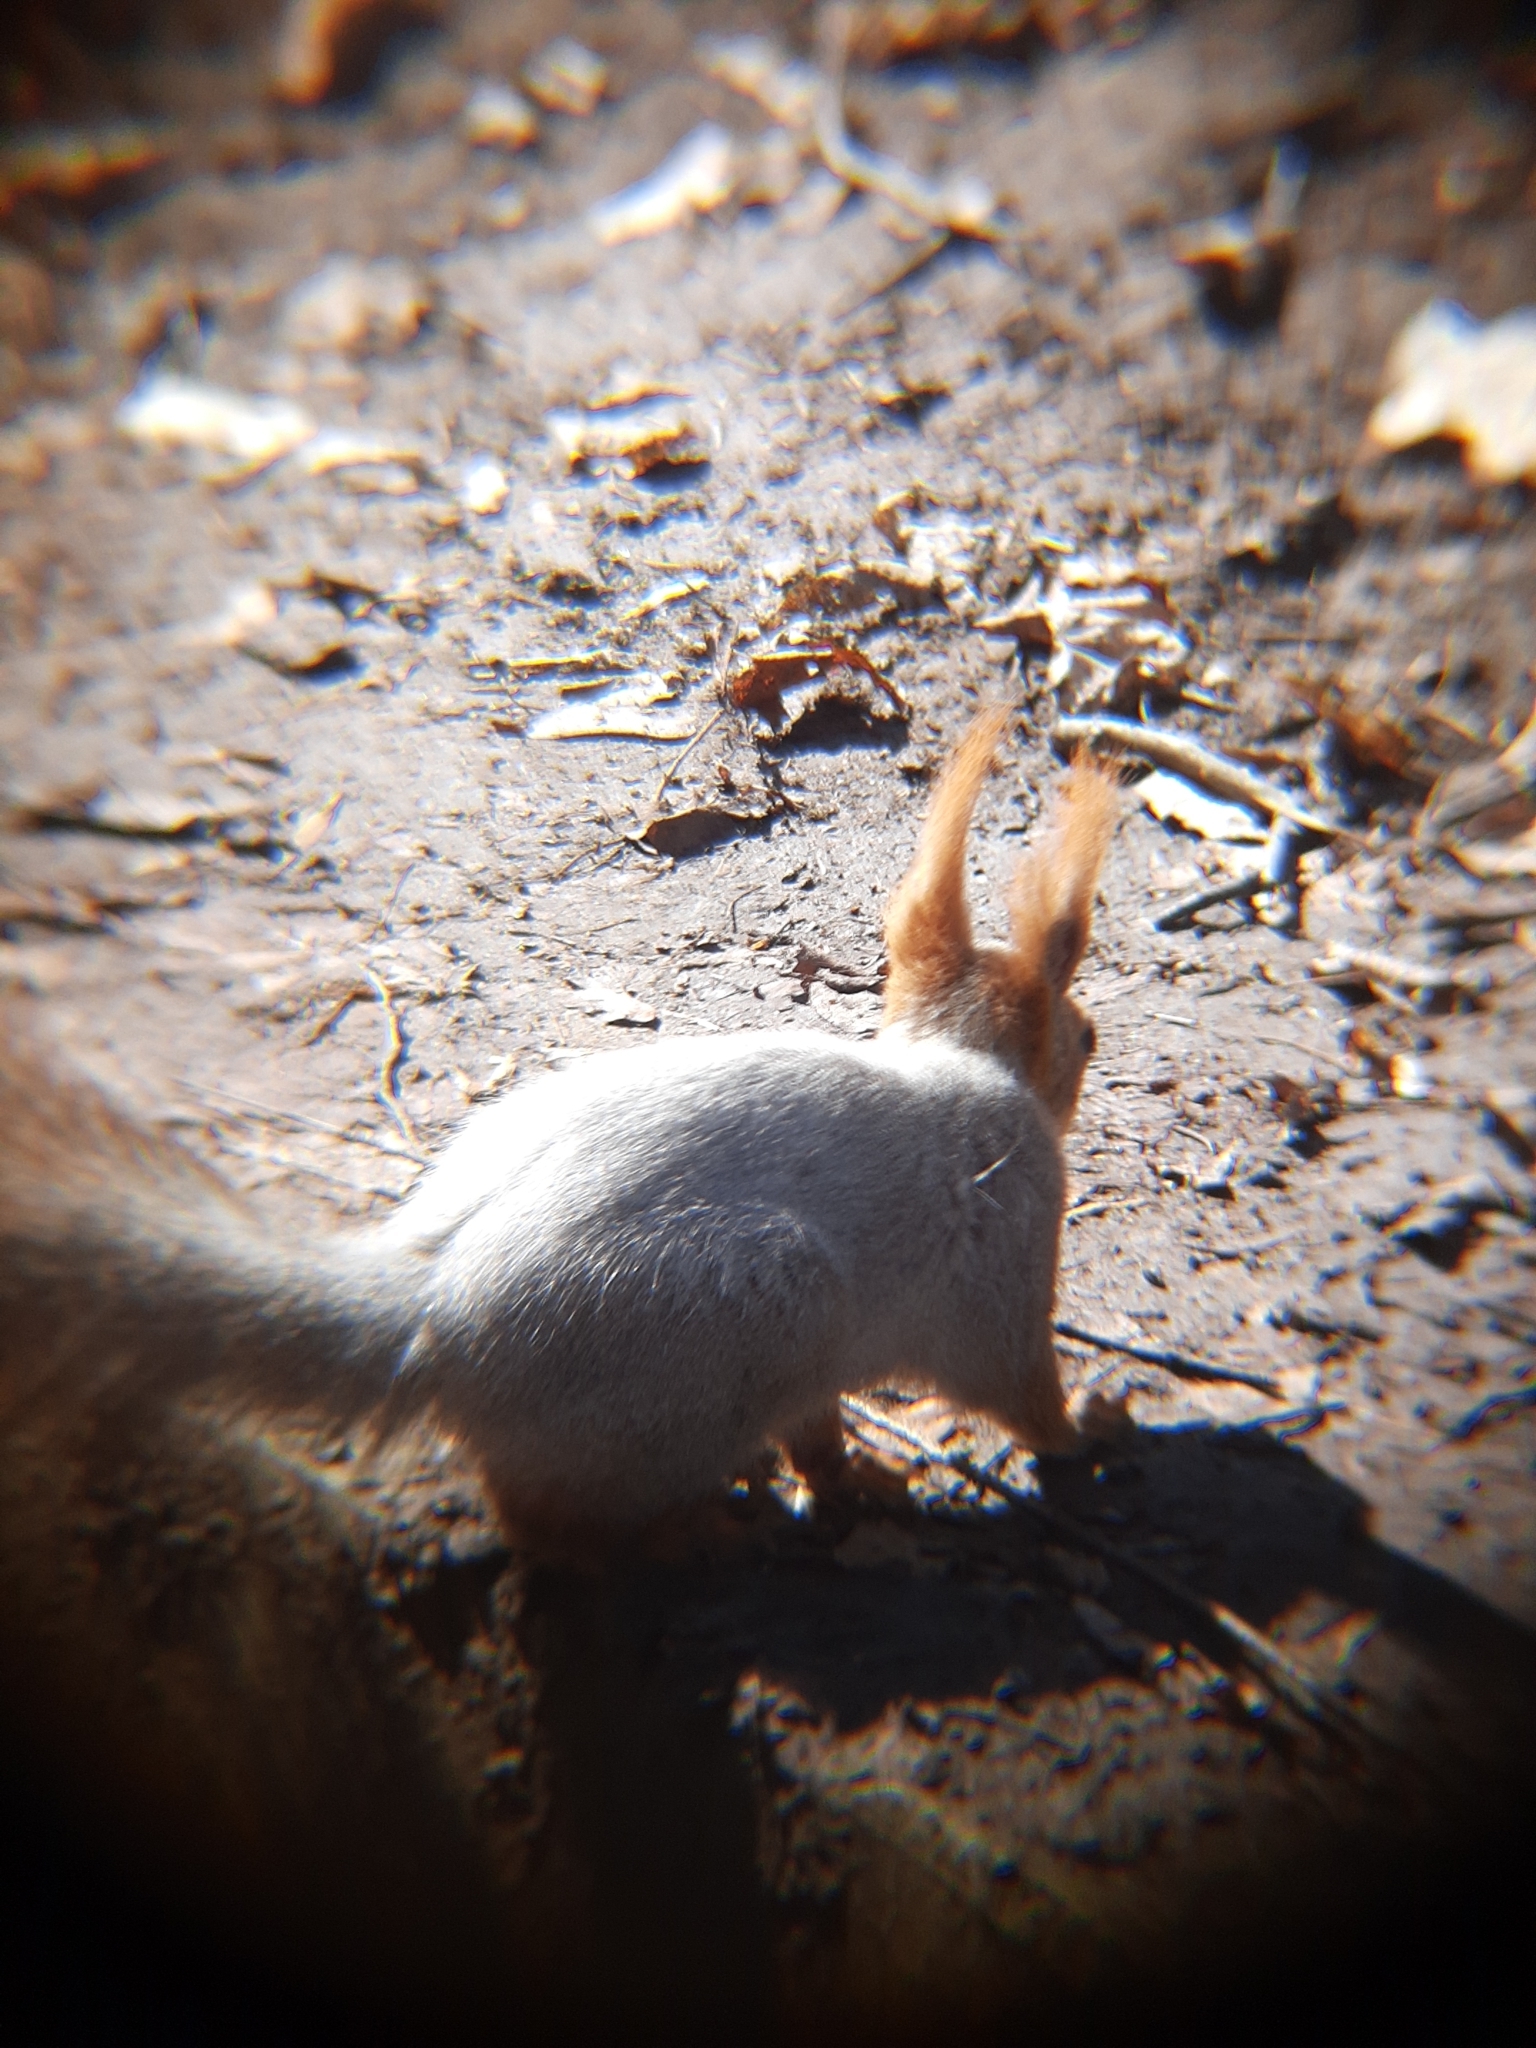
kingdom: Animalia
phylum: Chordata
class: Mammalia
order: Rodentia
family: Sciuridae
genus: Sciurus
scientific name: Sciurus vulgaris
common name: Eurasian red squirrel
